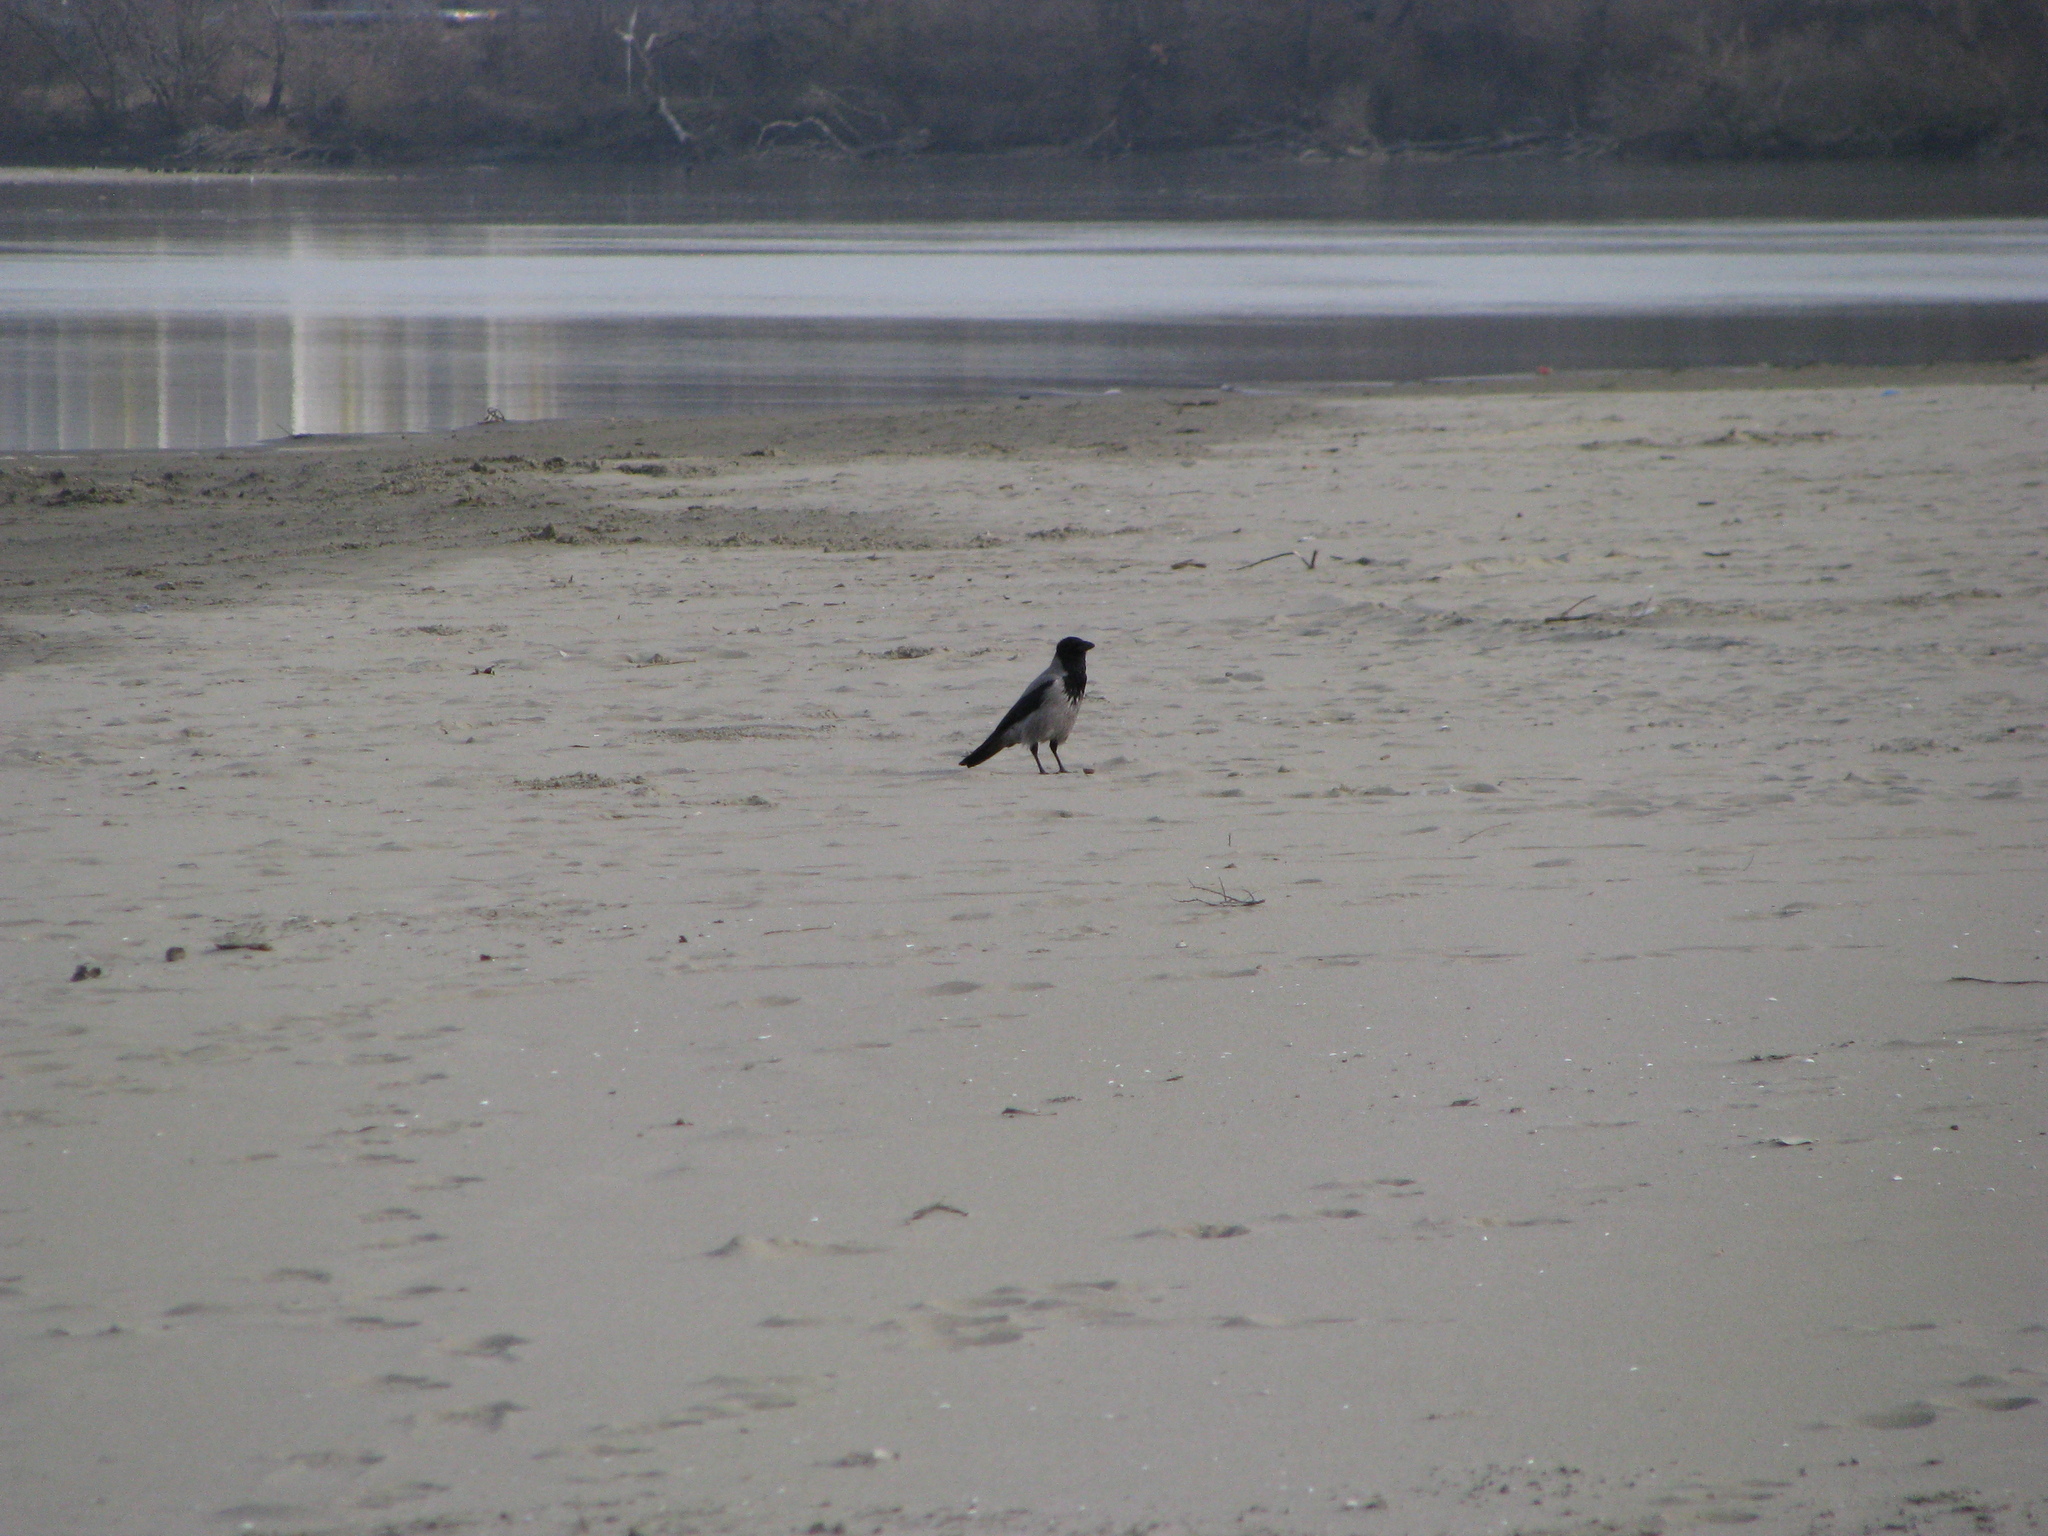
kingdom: Animalia
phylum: Chordata
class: Aves
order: Passeriformes
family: Corvidae
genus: Corvus
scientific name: Corvus cornix
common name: Hooded crow
